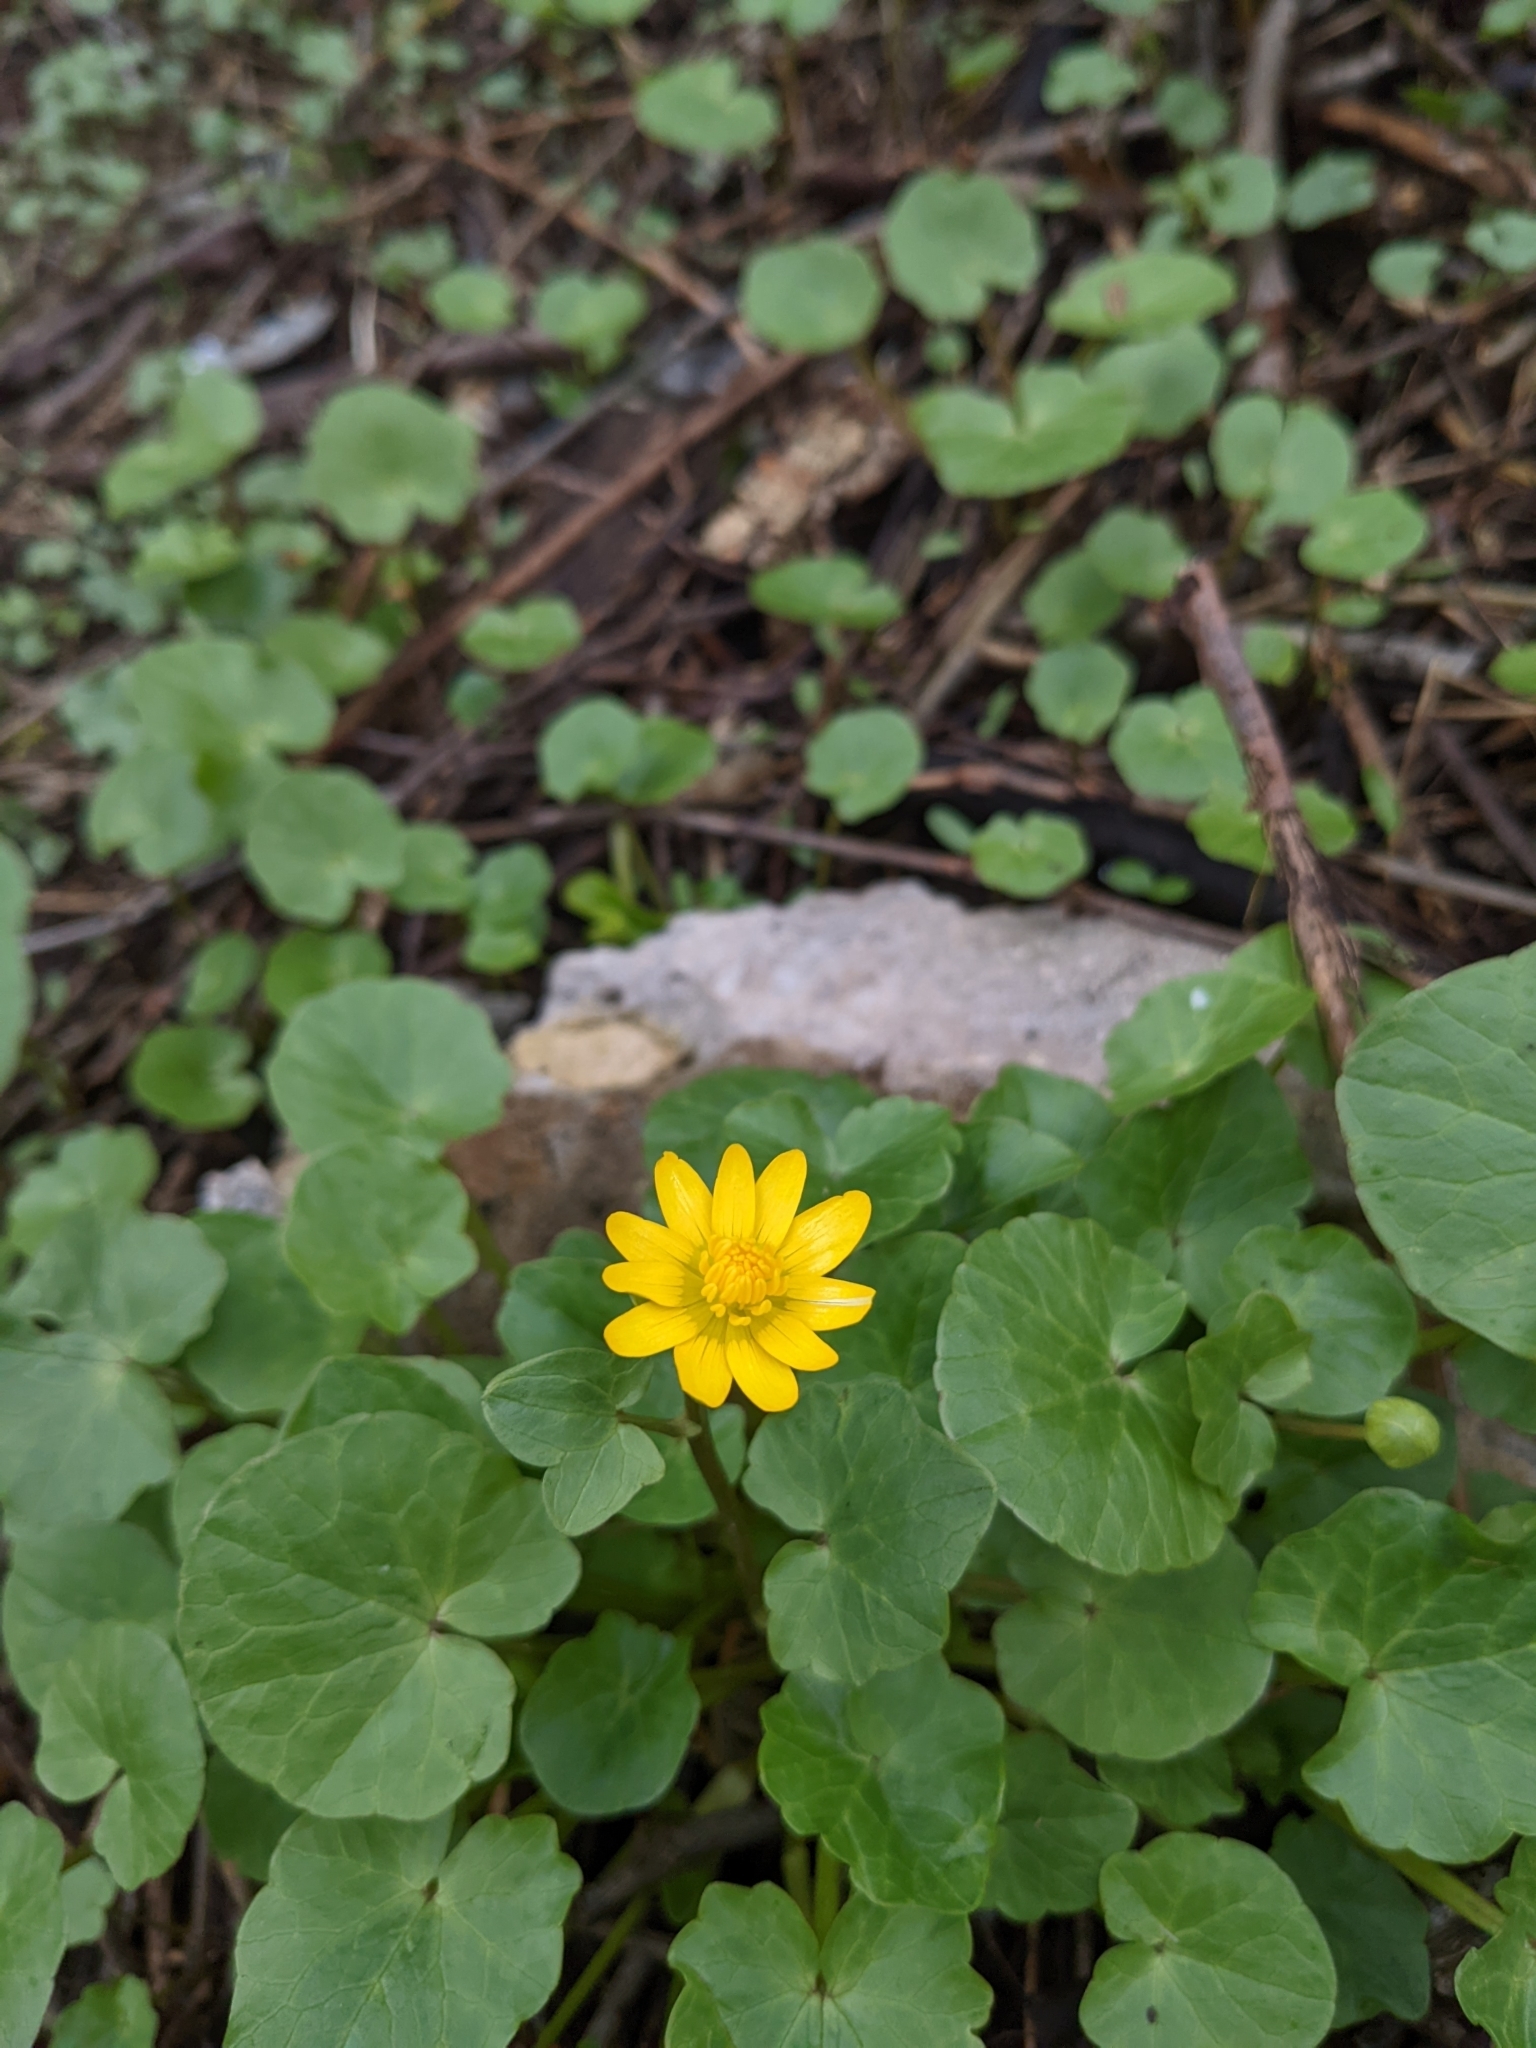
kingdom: Plantae
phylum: Tracheophyta
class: Magnoliopsida
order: Ranunculales
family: Ranunculaceae
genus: Ficaria
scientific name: Ficaria verna
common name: Lesser celandine
